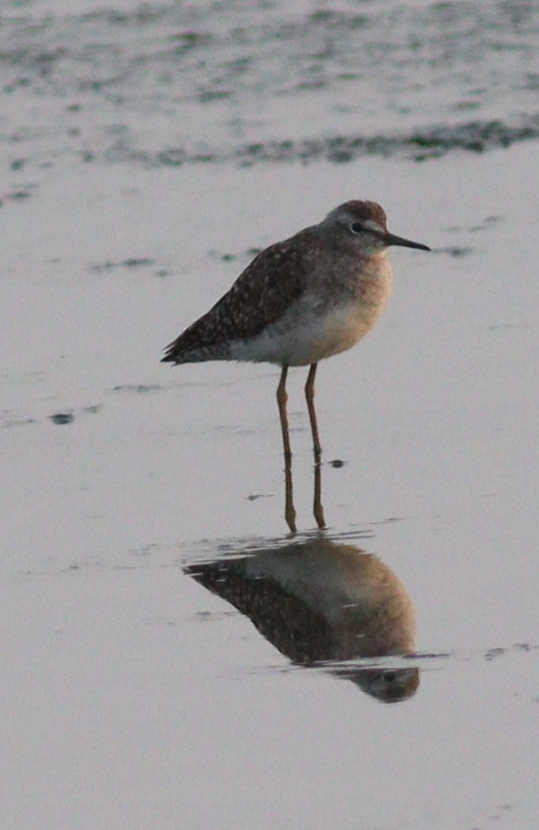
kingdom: Animalia
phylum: Chordata
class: Aves
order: Charadriiformes
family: Scolopacidae
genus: Tringa
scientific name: Tringa glareola
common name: Wood sandpiper
